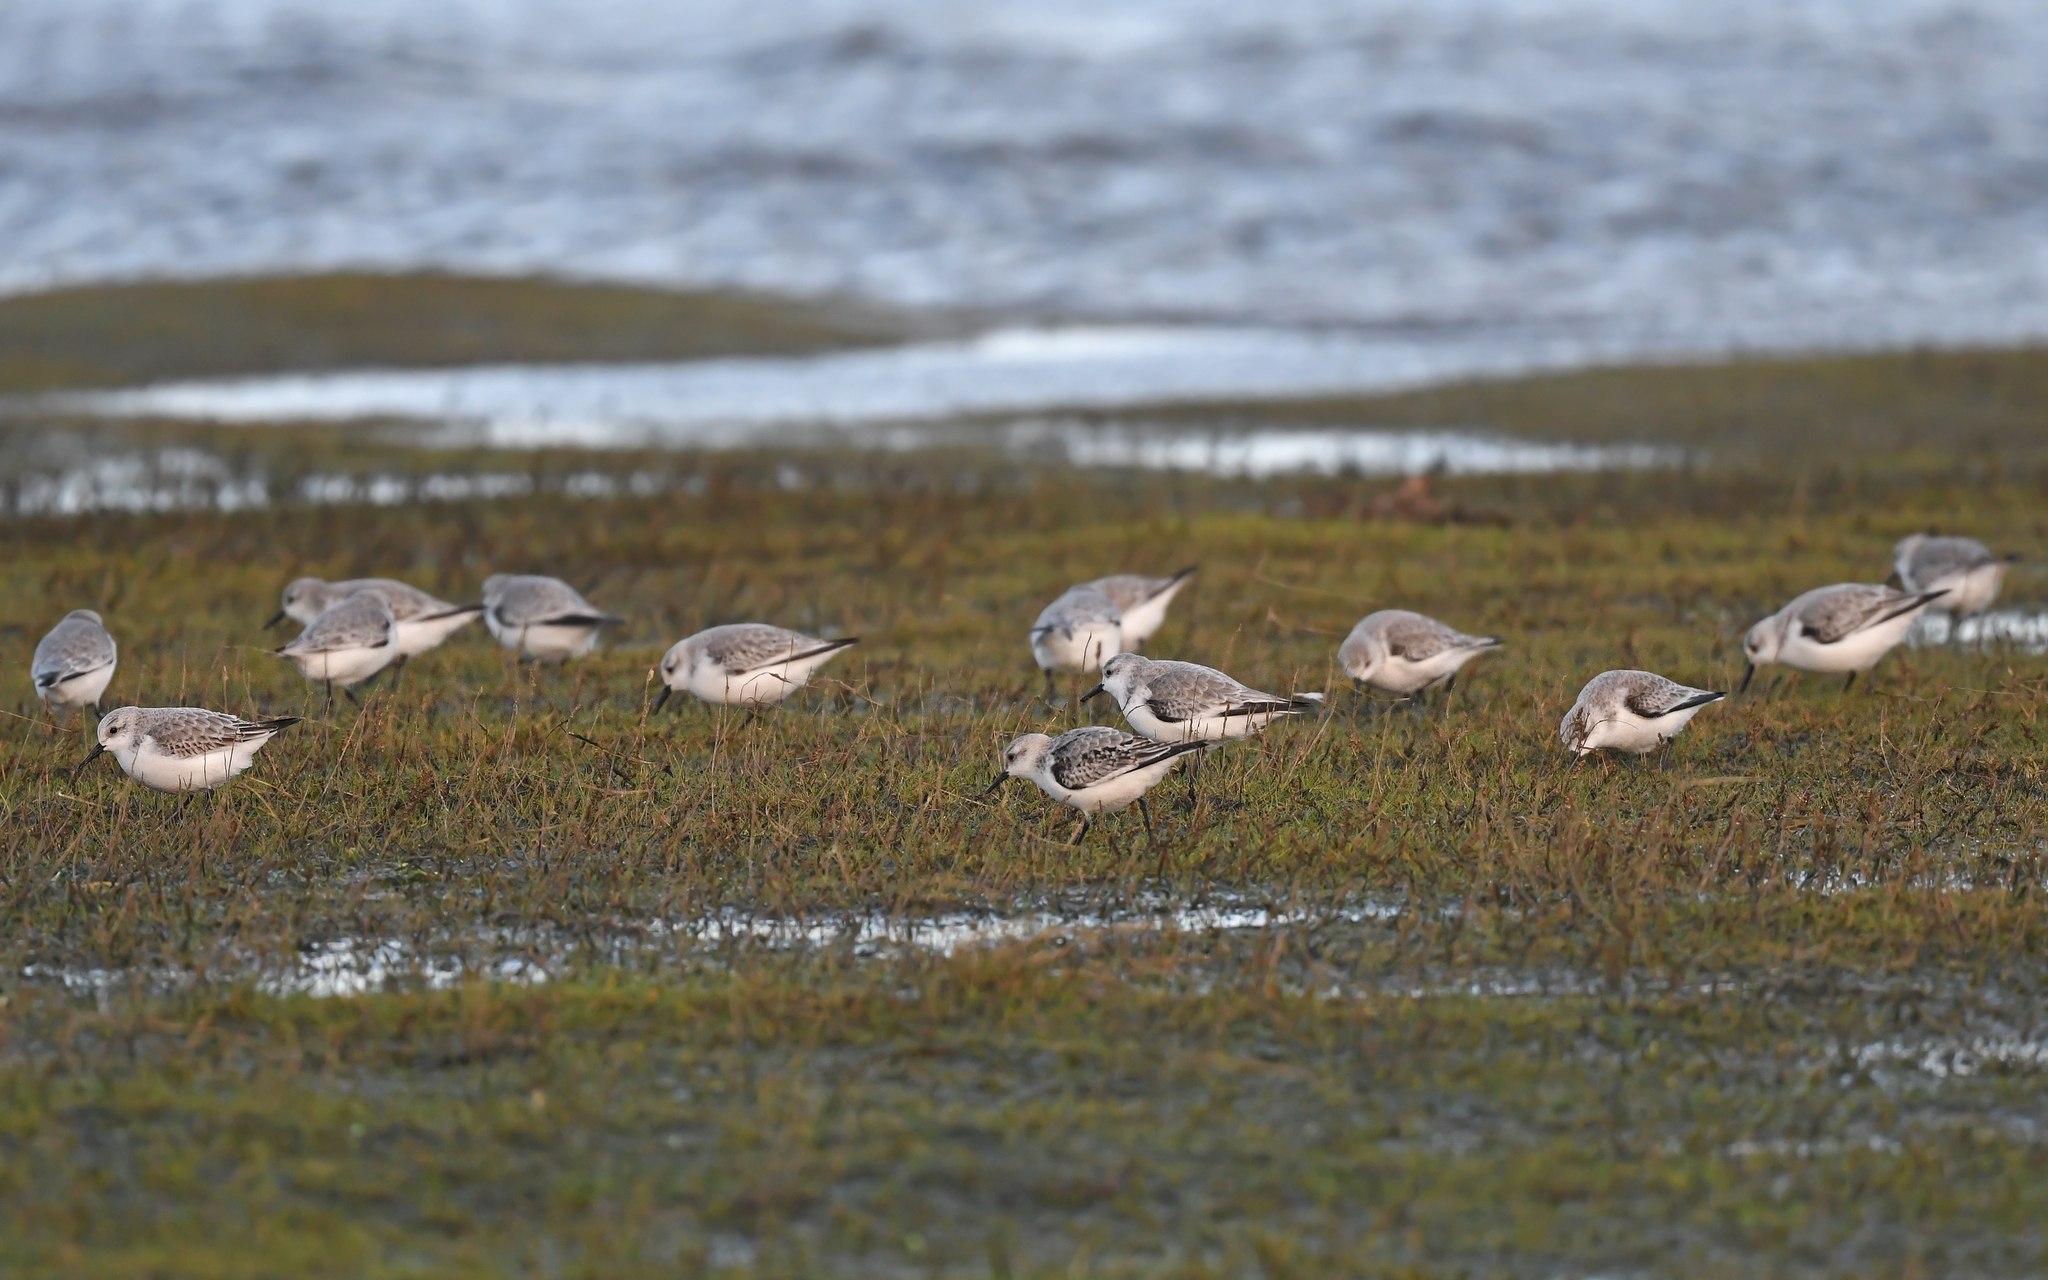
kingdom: Animalia
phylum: Chordata
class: Aves
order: Charadriiformes
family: Scolopacidae
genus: Calidris
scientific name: Calidris alba
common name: Sanderling
